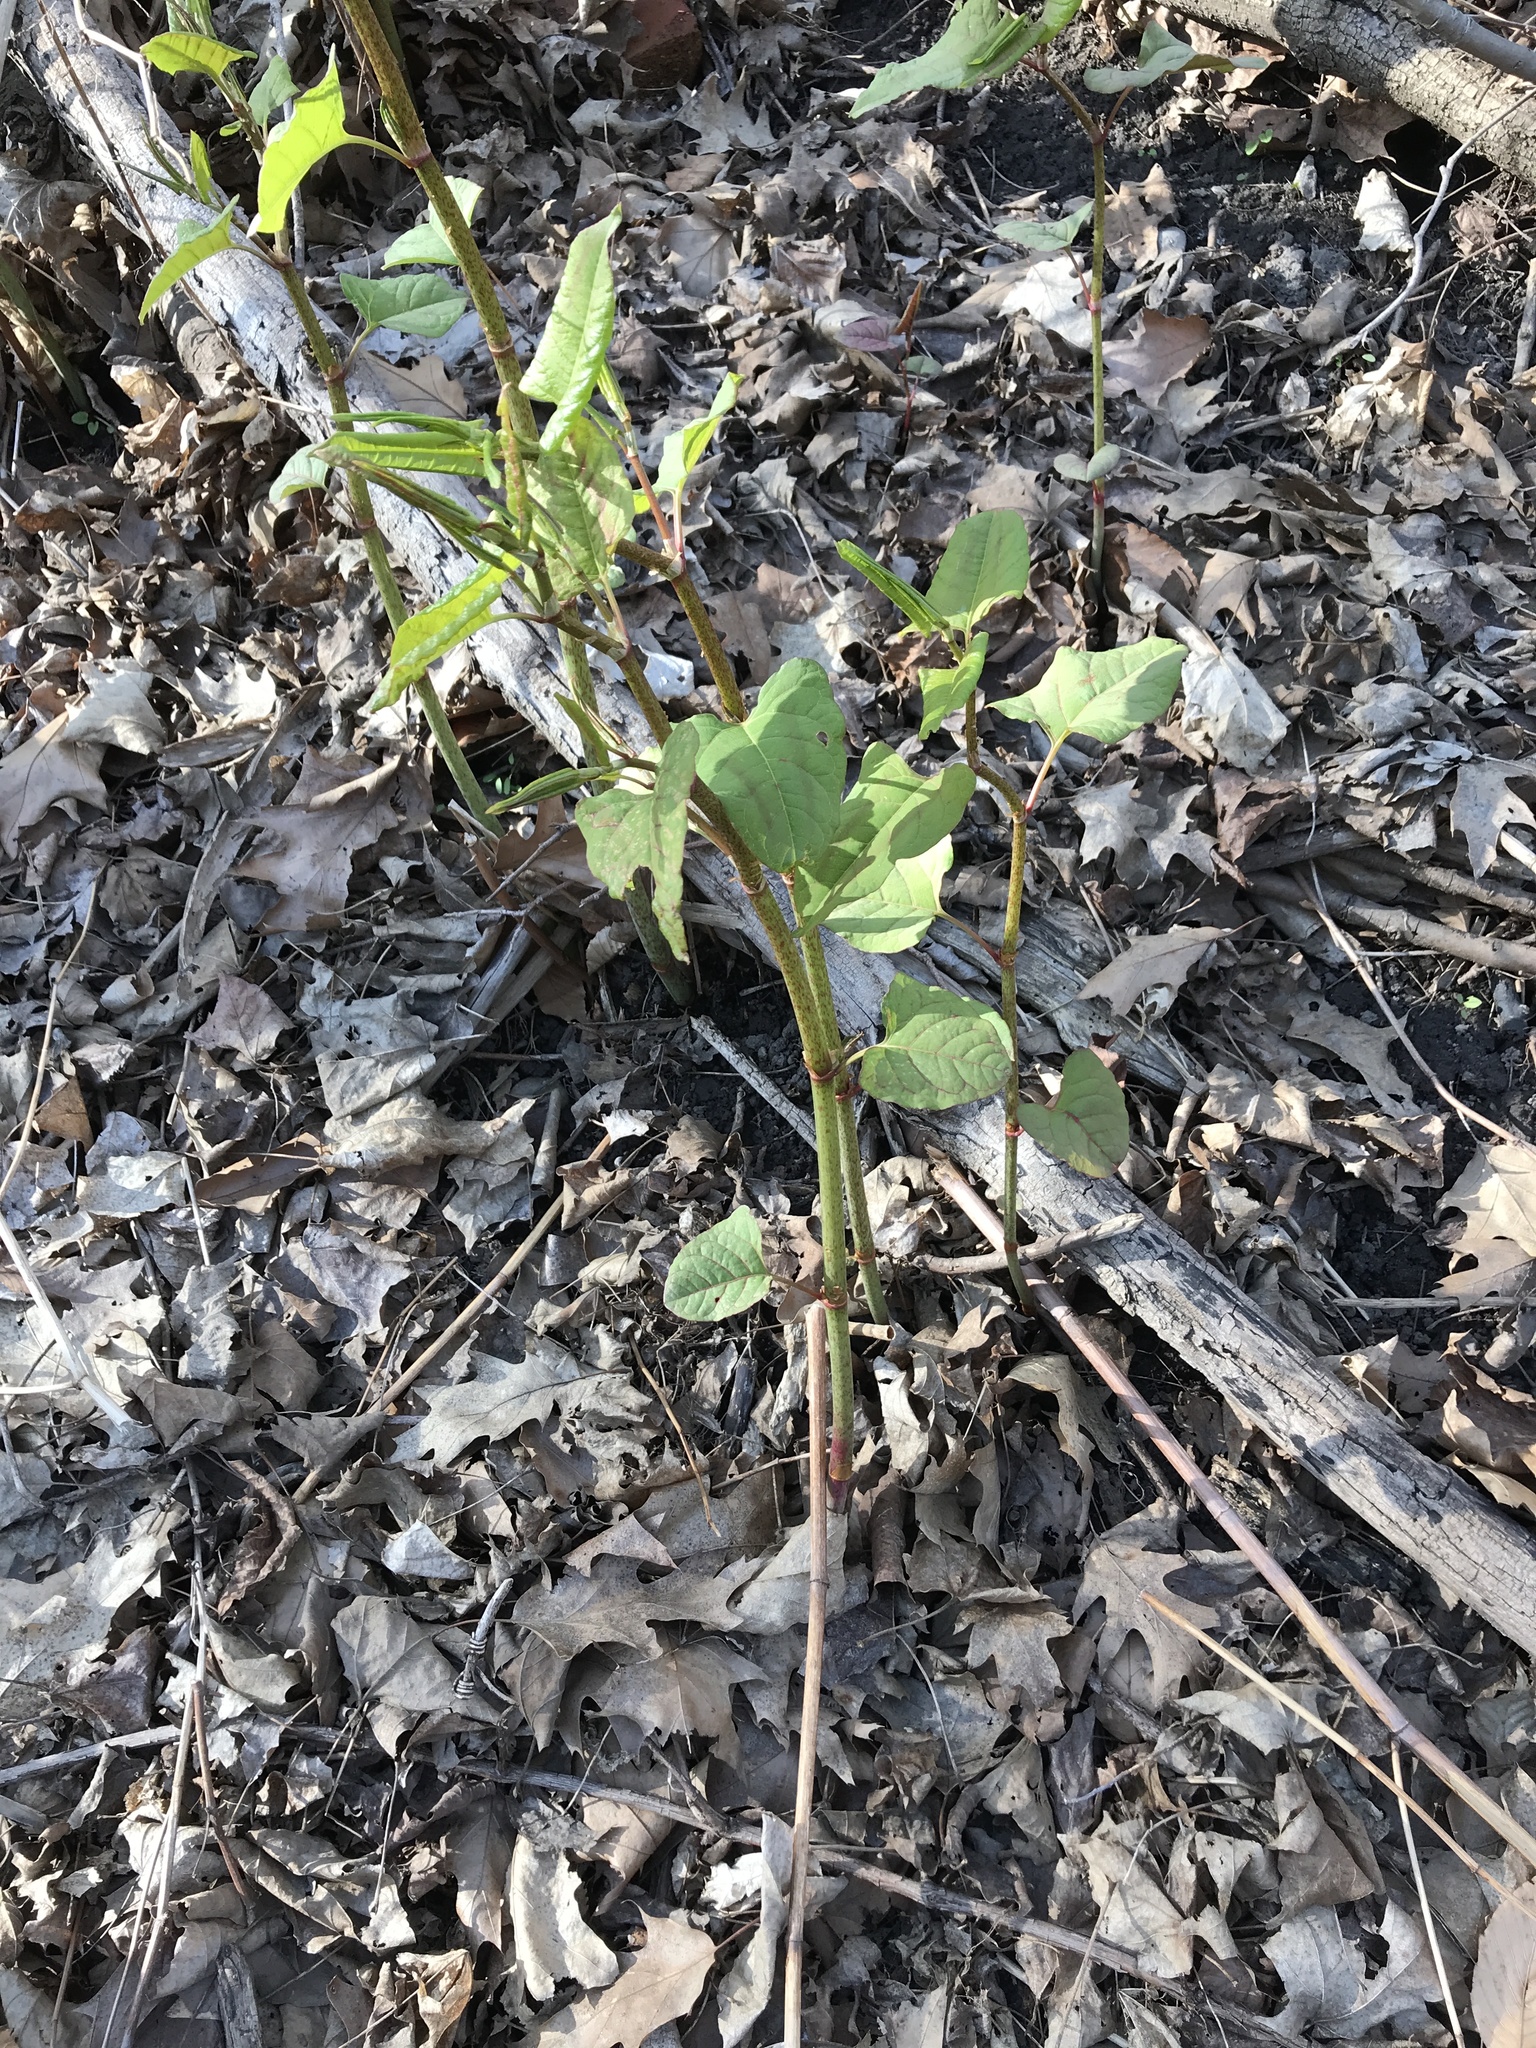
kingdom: Plantae
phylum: Tracheophyta
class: Magnoliopsida
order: Caryophyllales
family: Polygonaceae
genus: Reynoutria
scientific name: Reynoutria japonica
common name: Japanese knotweed
